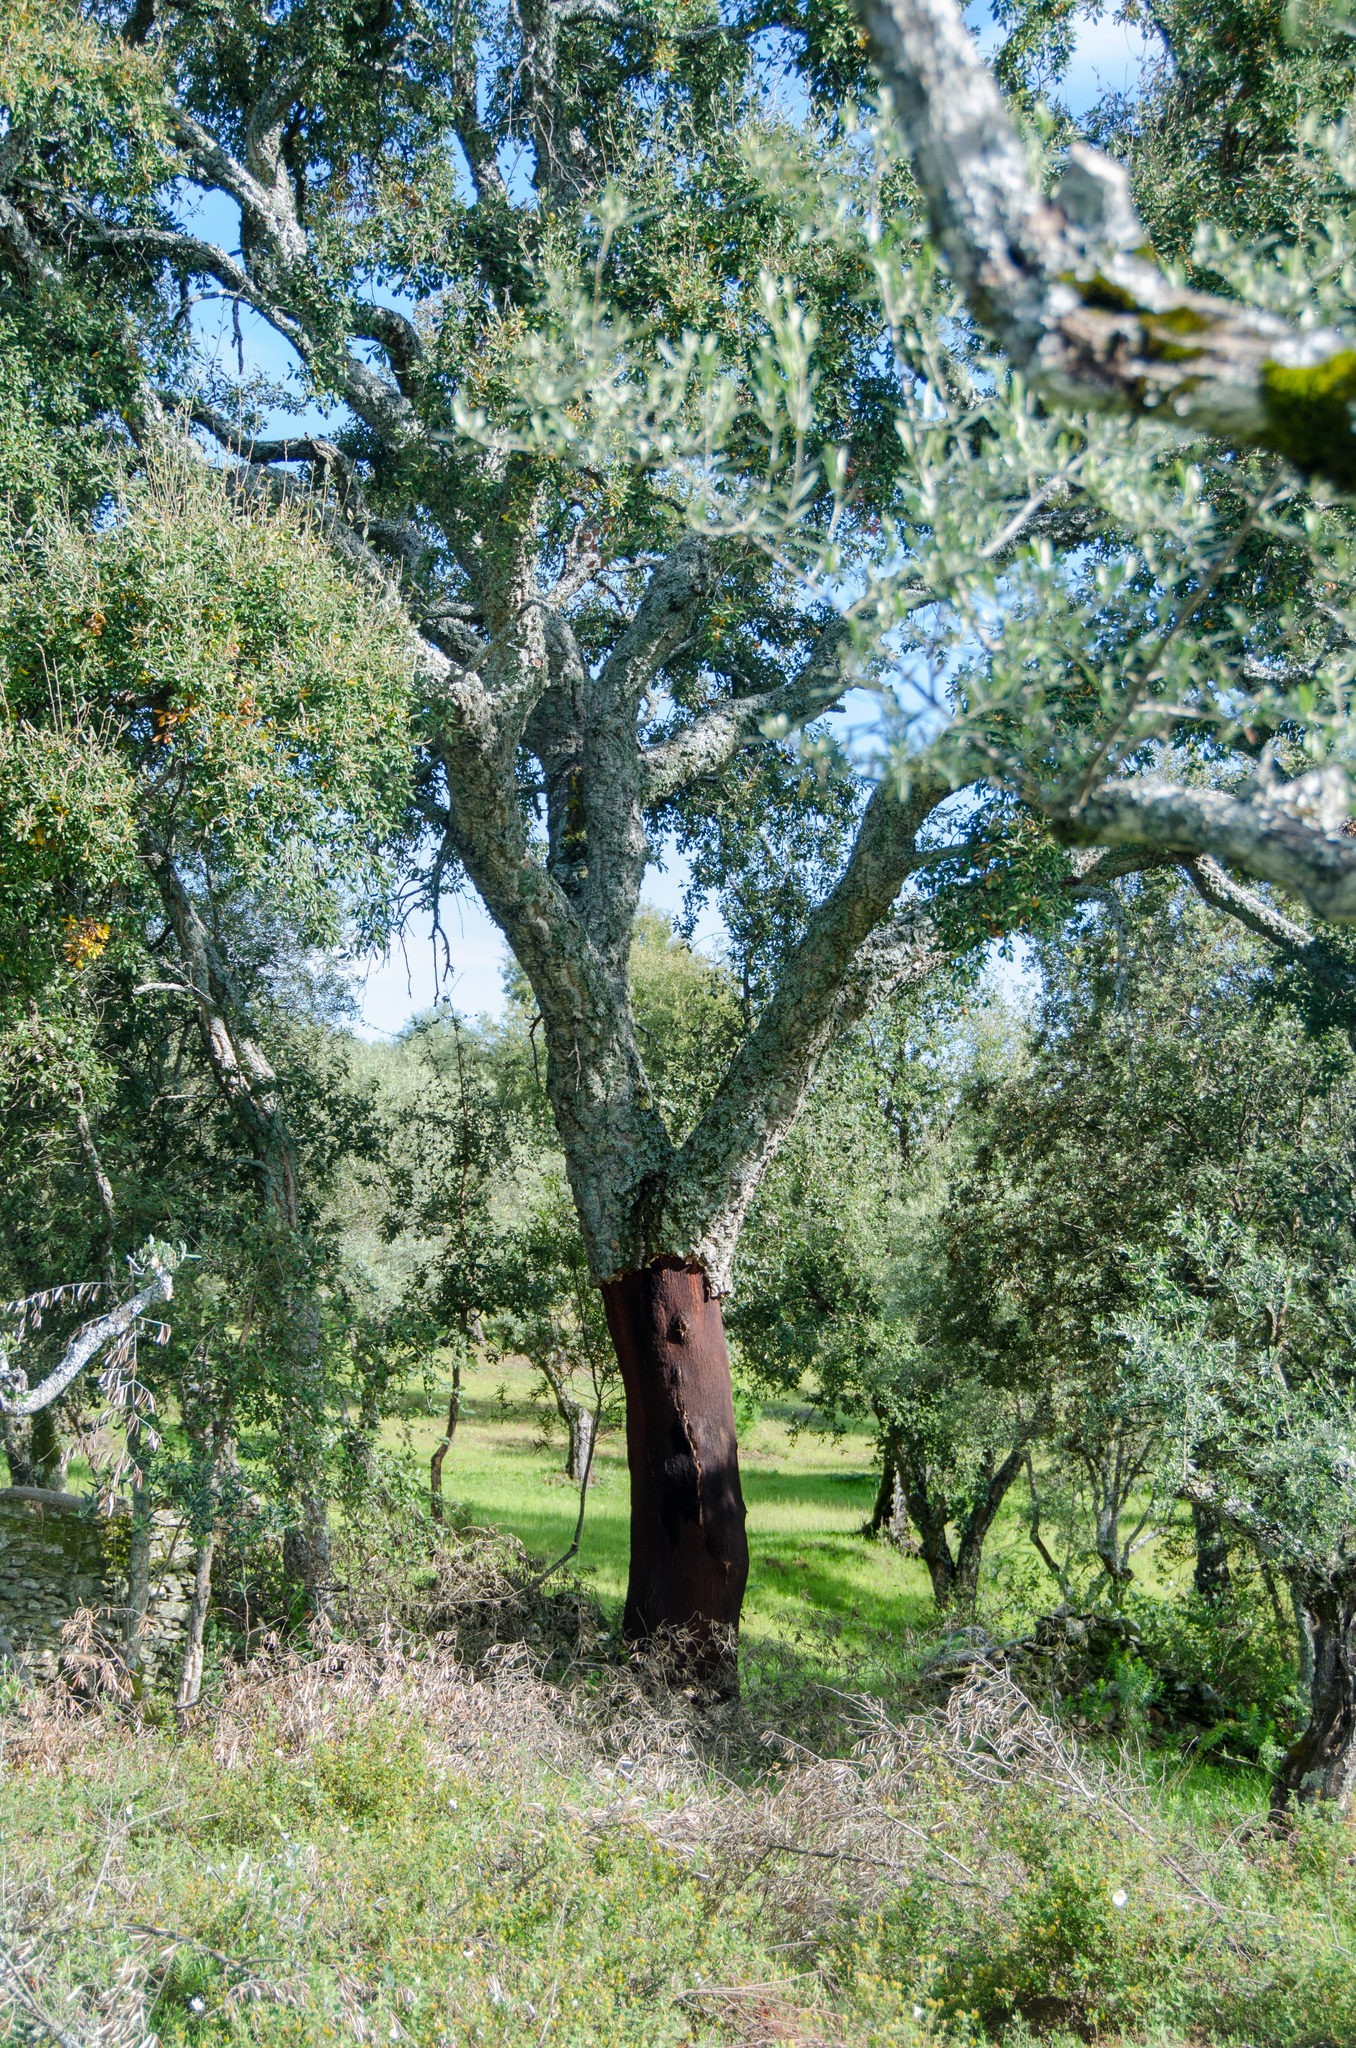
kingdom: Plantae
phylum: Tracheophyta
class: Magnoliopsida
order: Fagales
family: Fagaceae
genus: Quercus
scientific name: Quercus suber
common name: Cork oak
